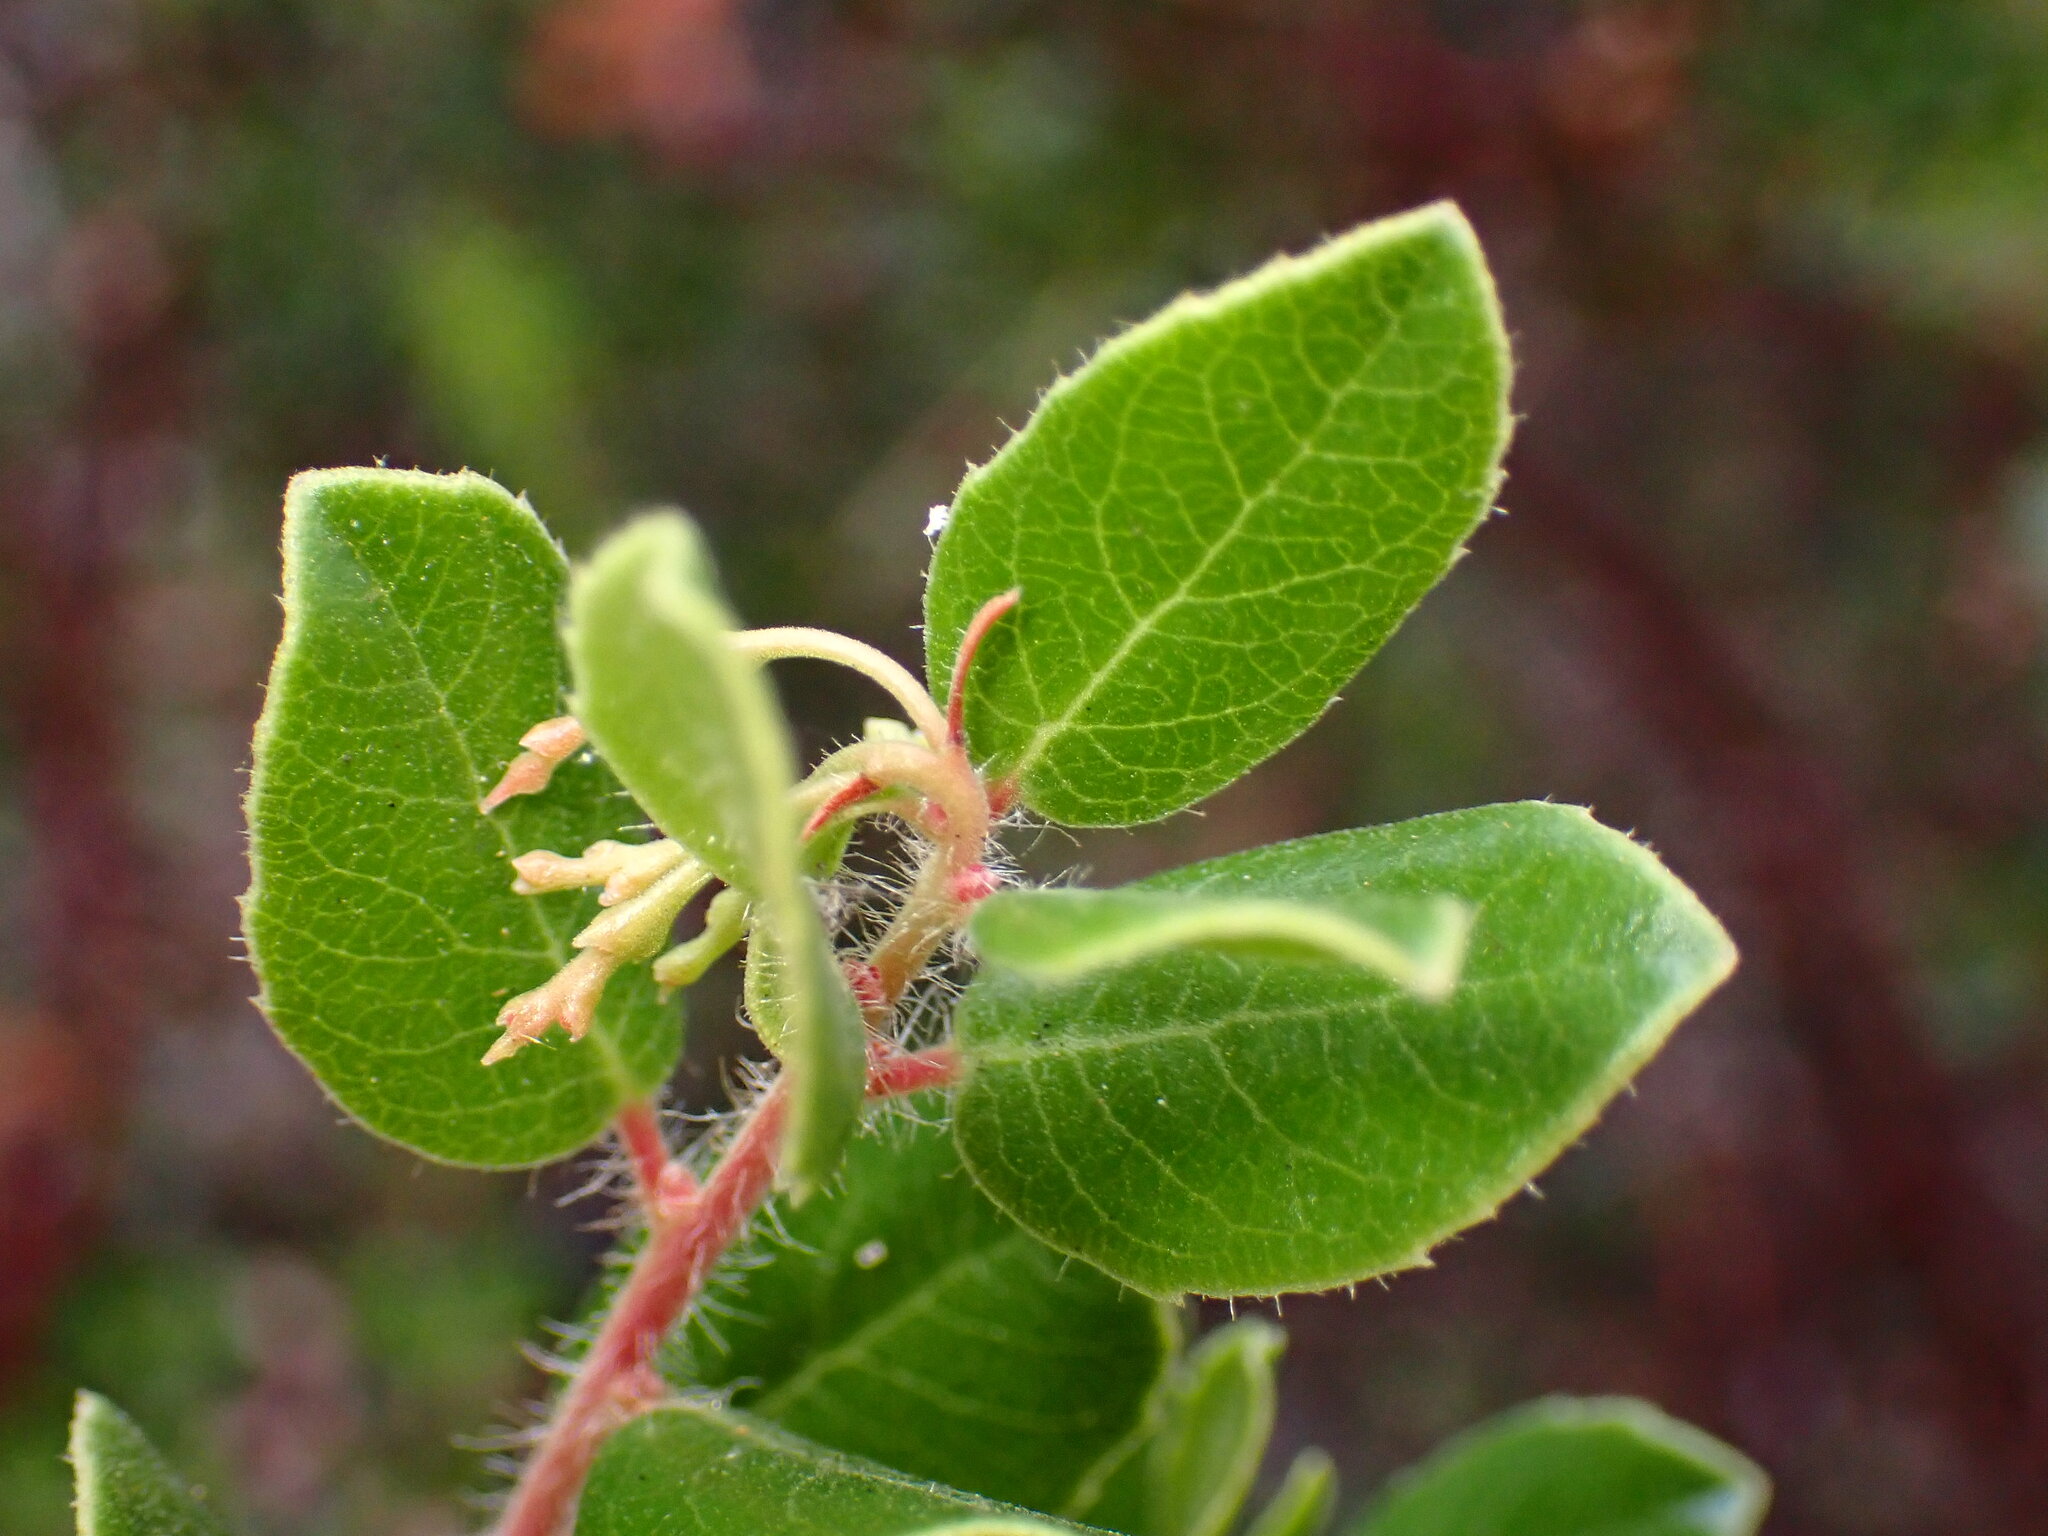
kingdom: Plantae
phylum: Tracheophyta
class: Magnoliopsida
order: Ericales
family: Ericaceae
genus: Arctostaphylos
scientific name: Arctostaphylos nummularia
